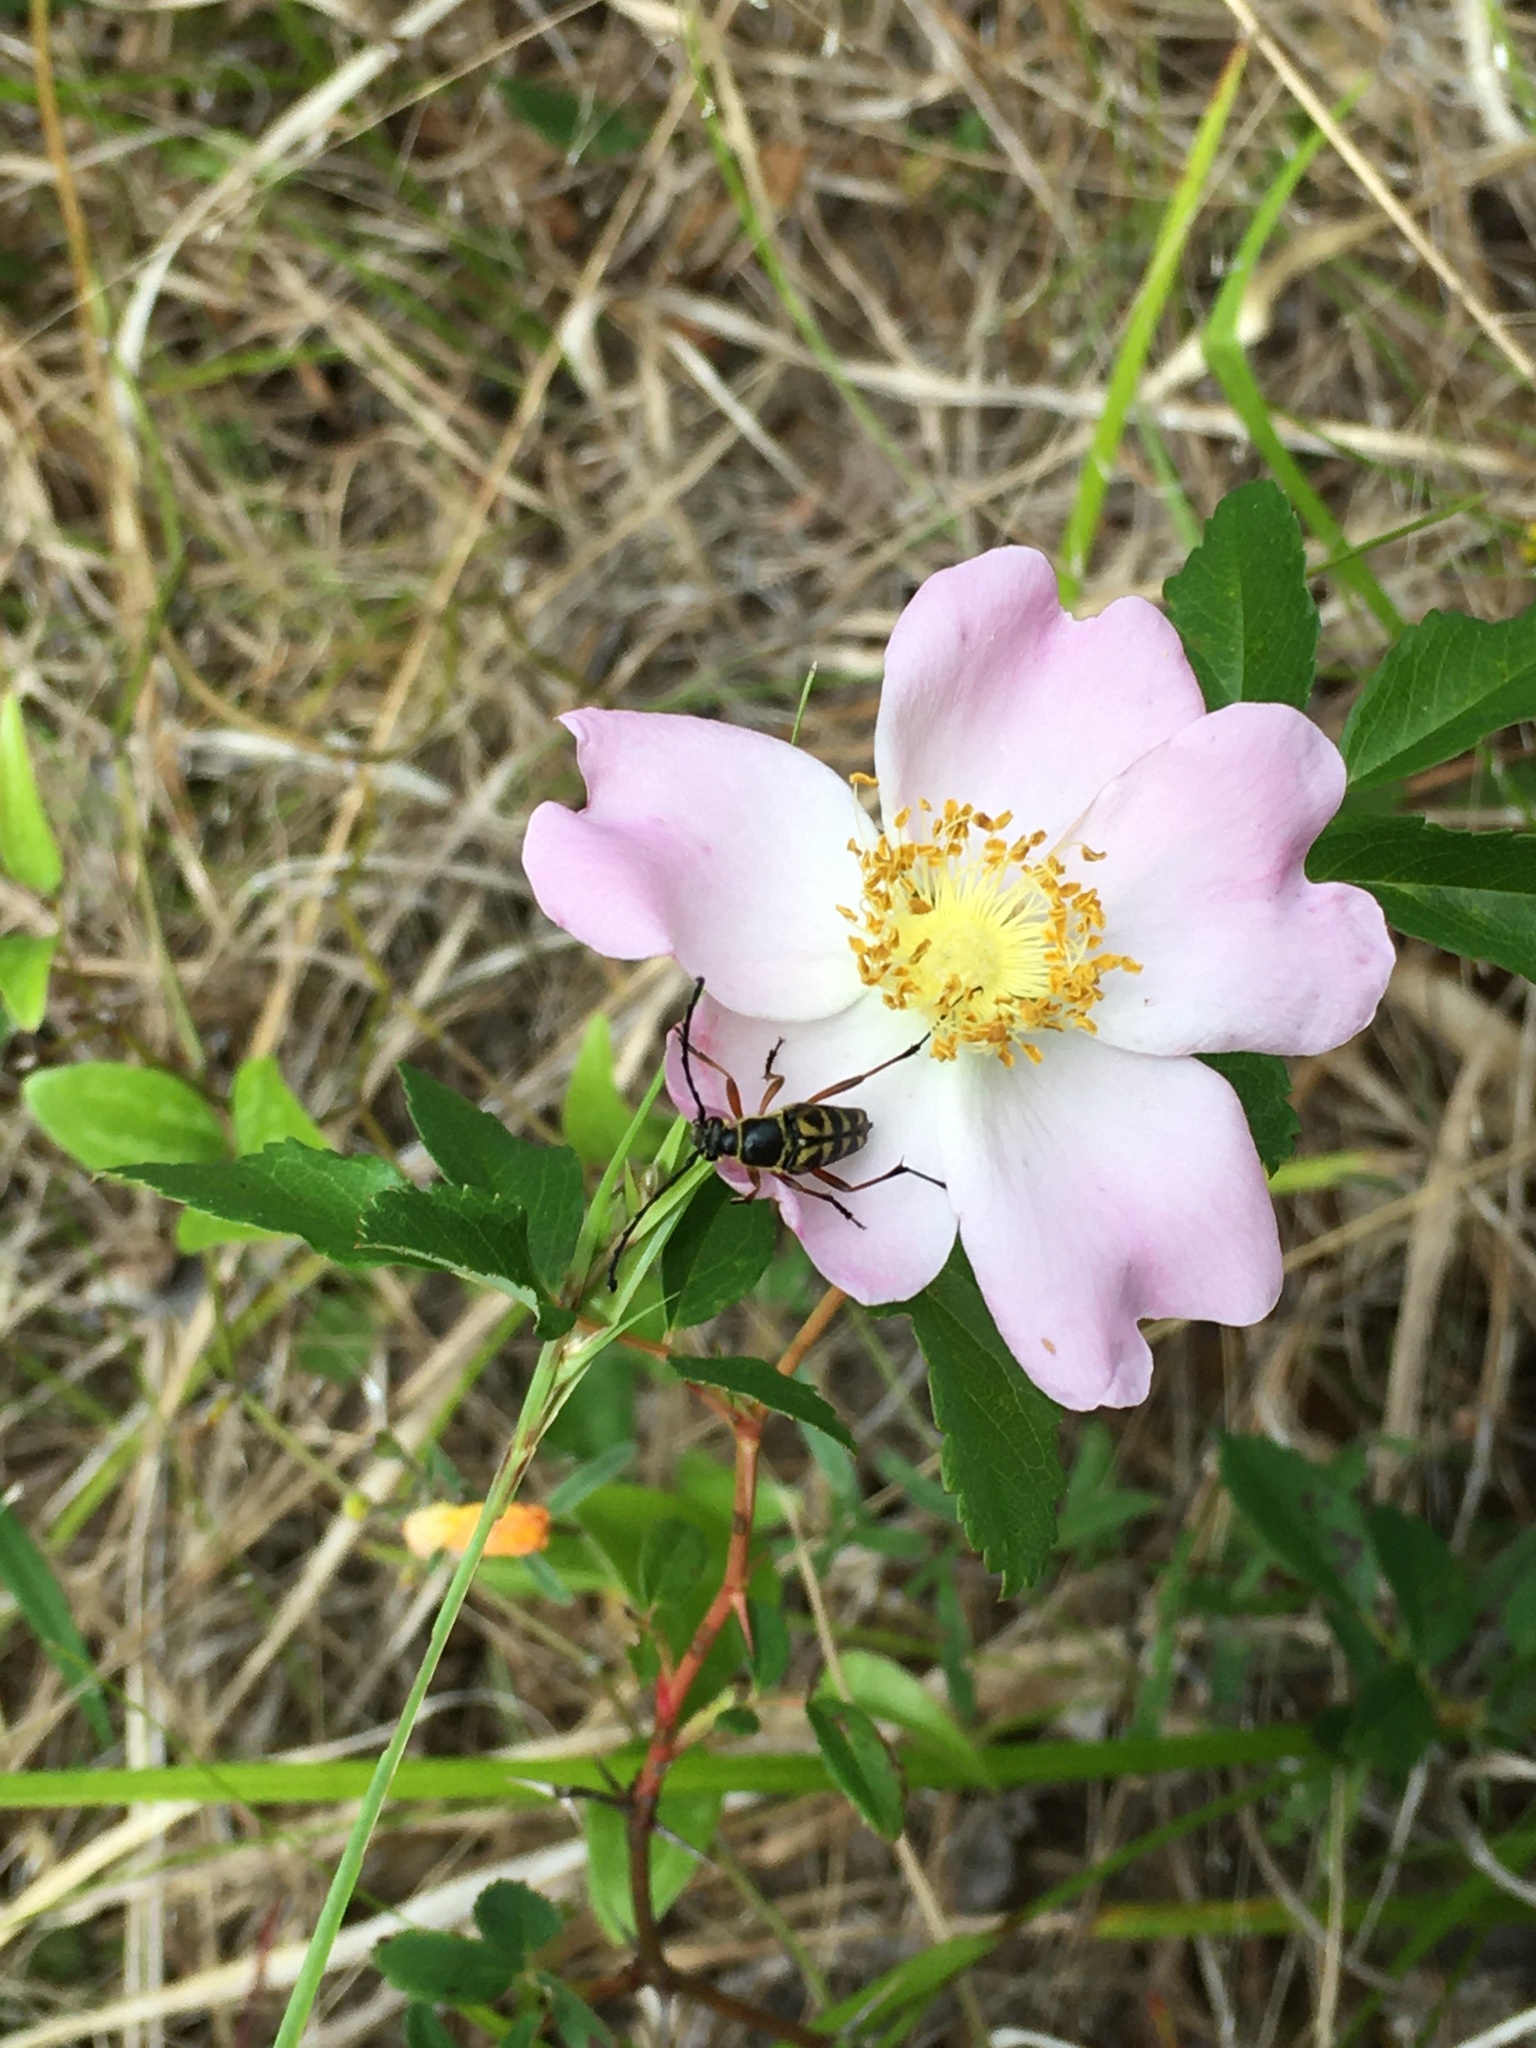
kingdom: Plantae
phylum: Tracheophyta
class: Magnoliopsida
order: Rosales
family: Rosaceae
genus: Rosa
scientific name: Rosa carolina
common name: Pasture rose
